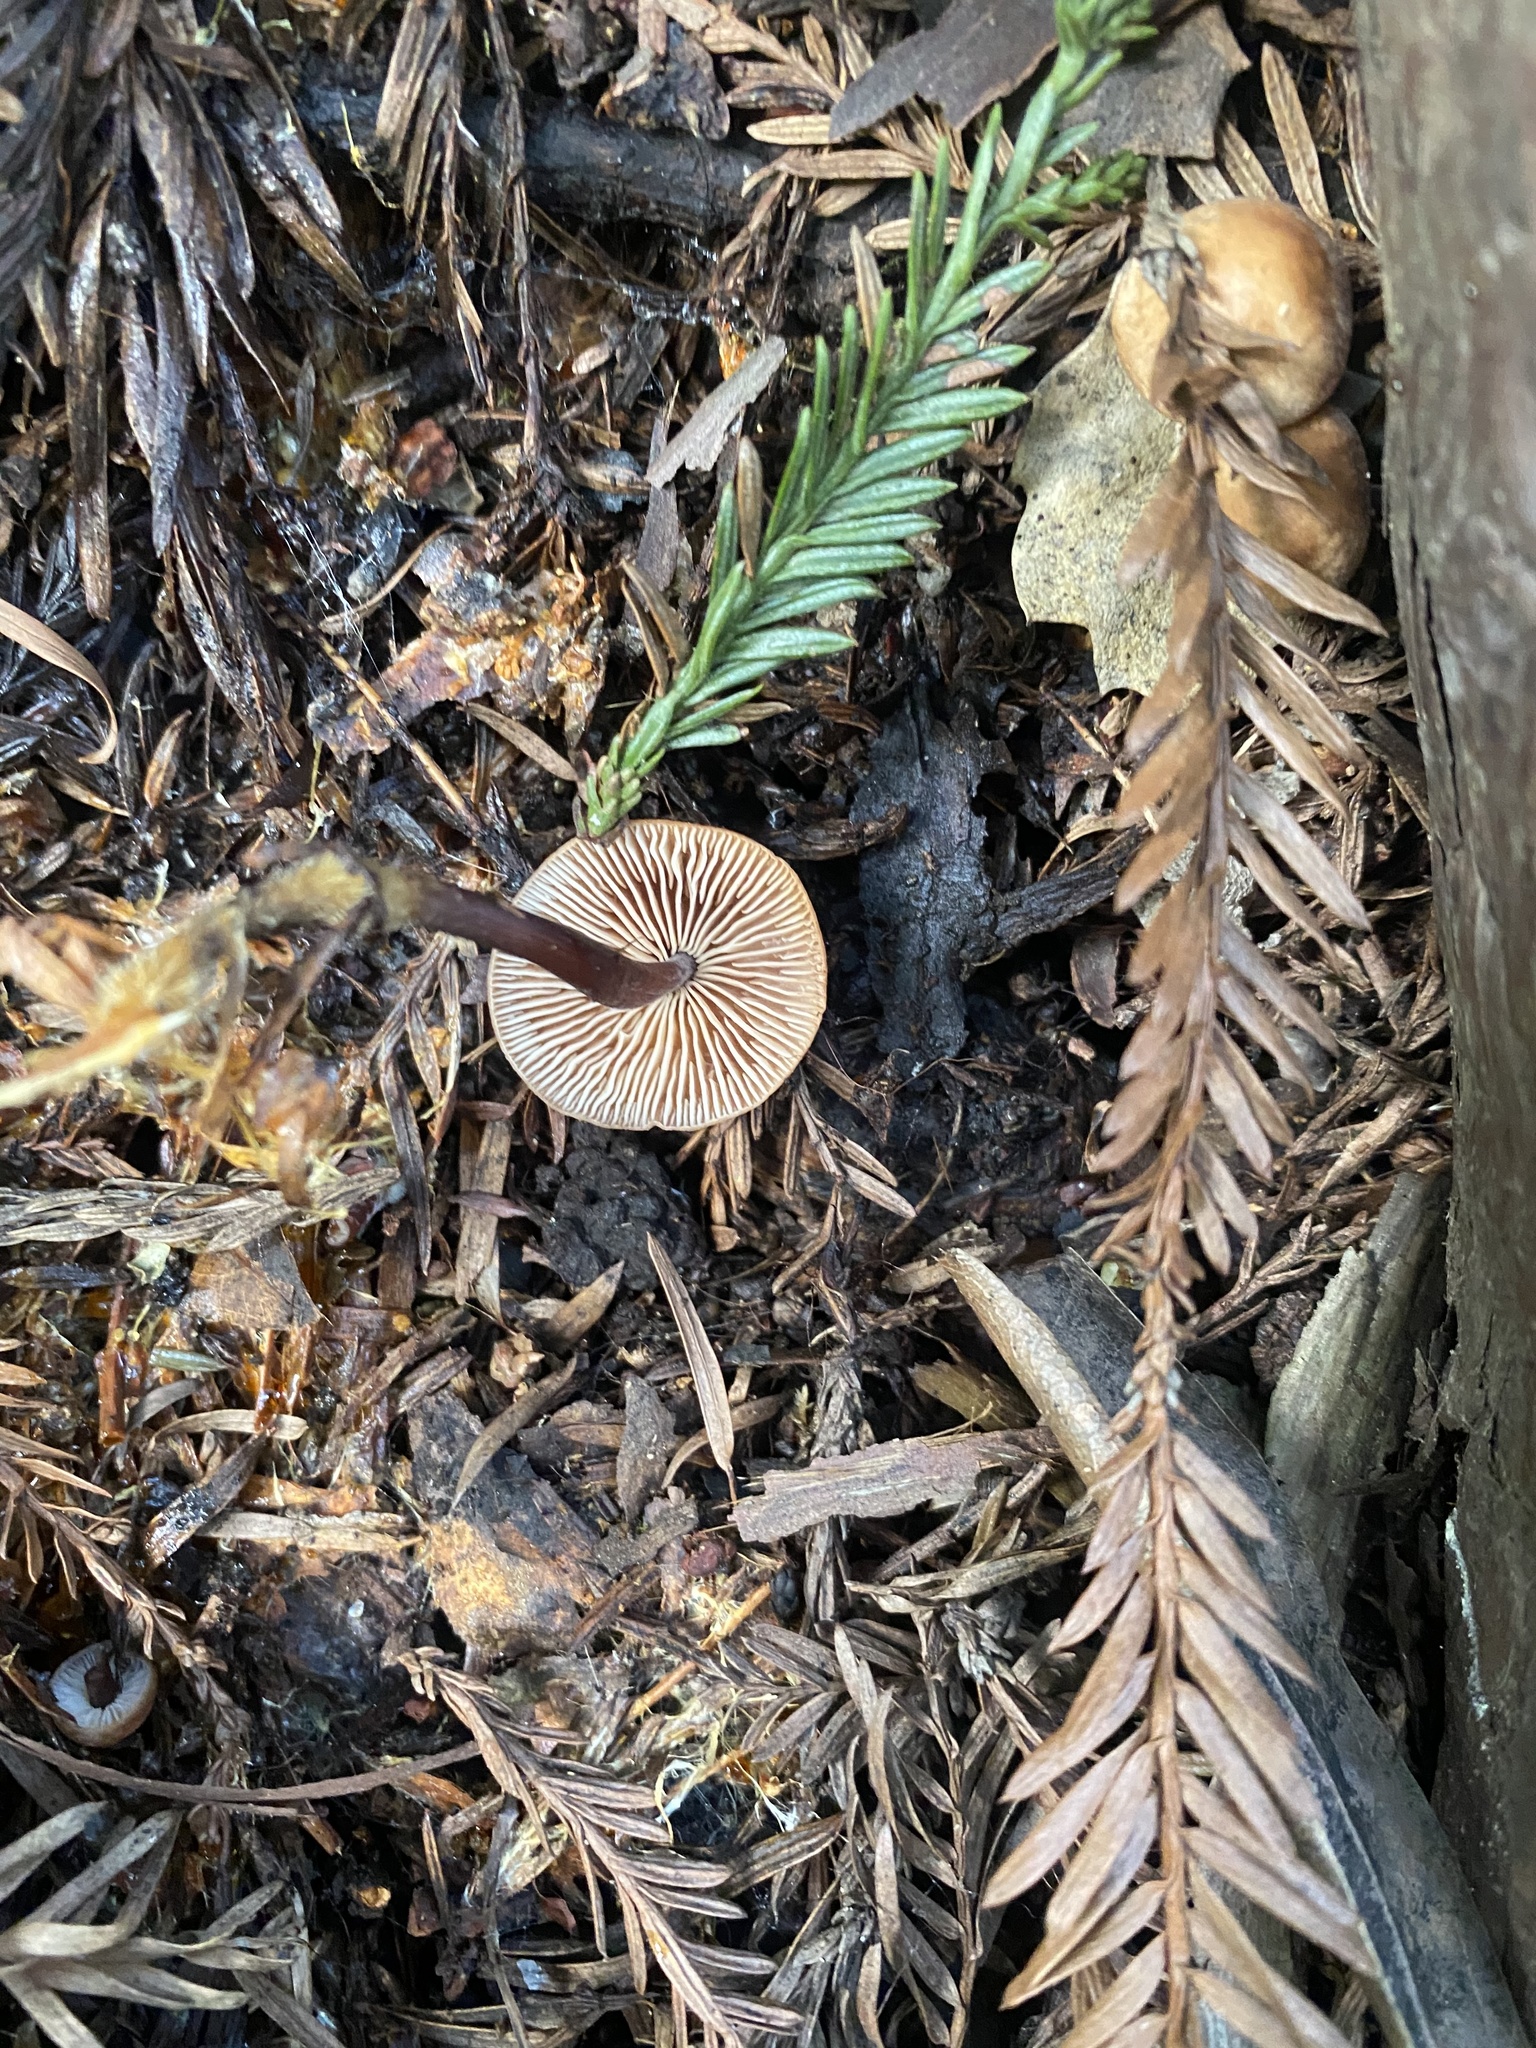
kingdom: Fungi
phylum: Basidiomycota
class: Agaricomycetes
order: Agaricales
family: Omphalotaceae
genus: Gymnopus
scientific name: Gymnopus brassicolens
